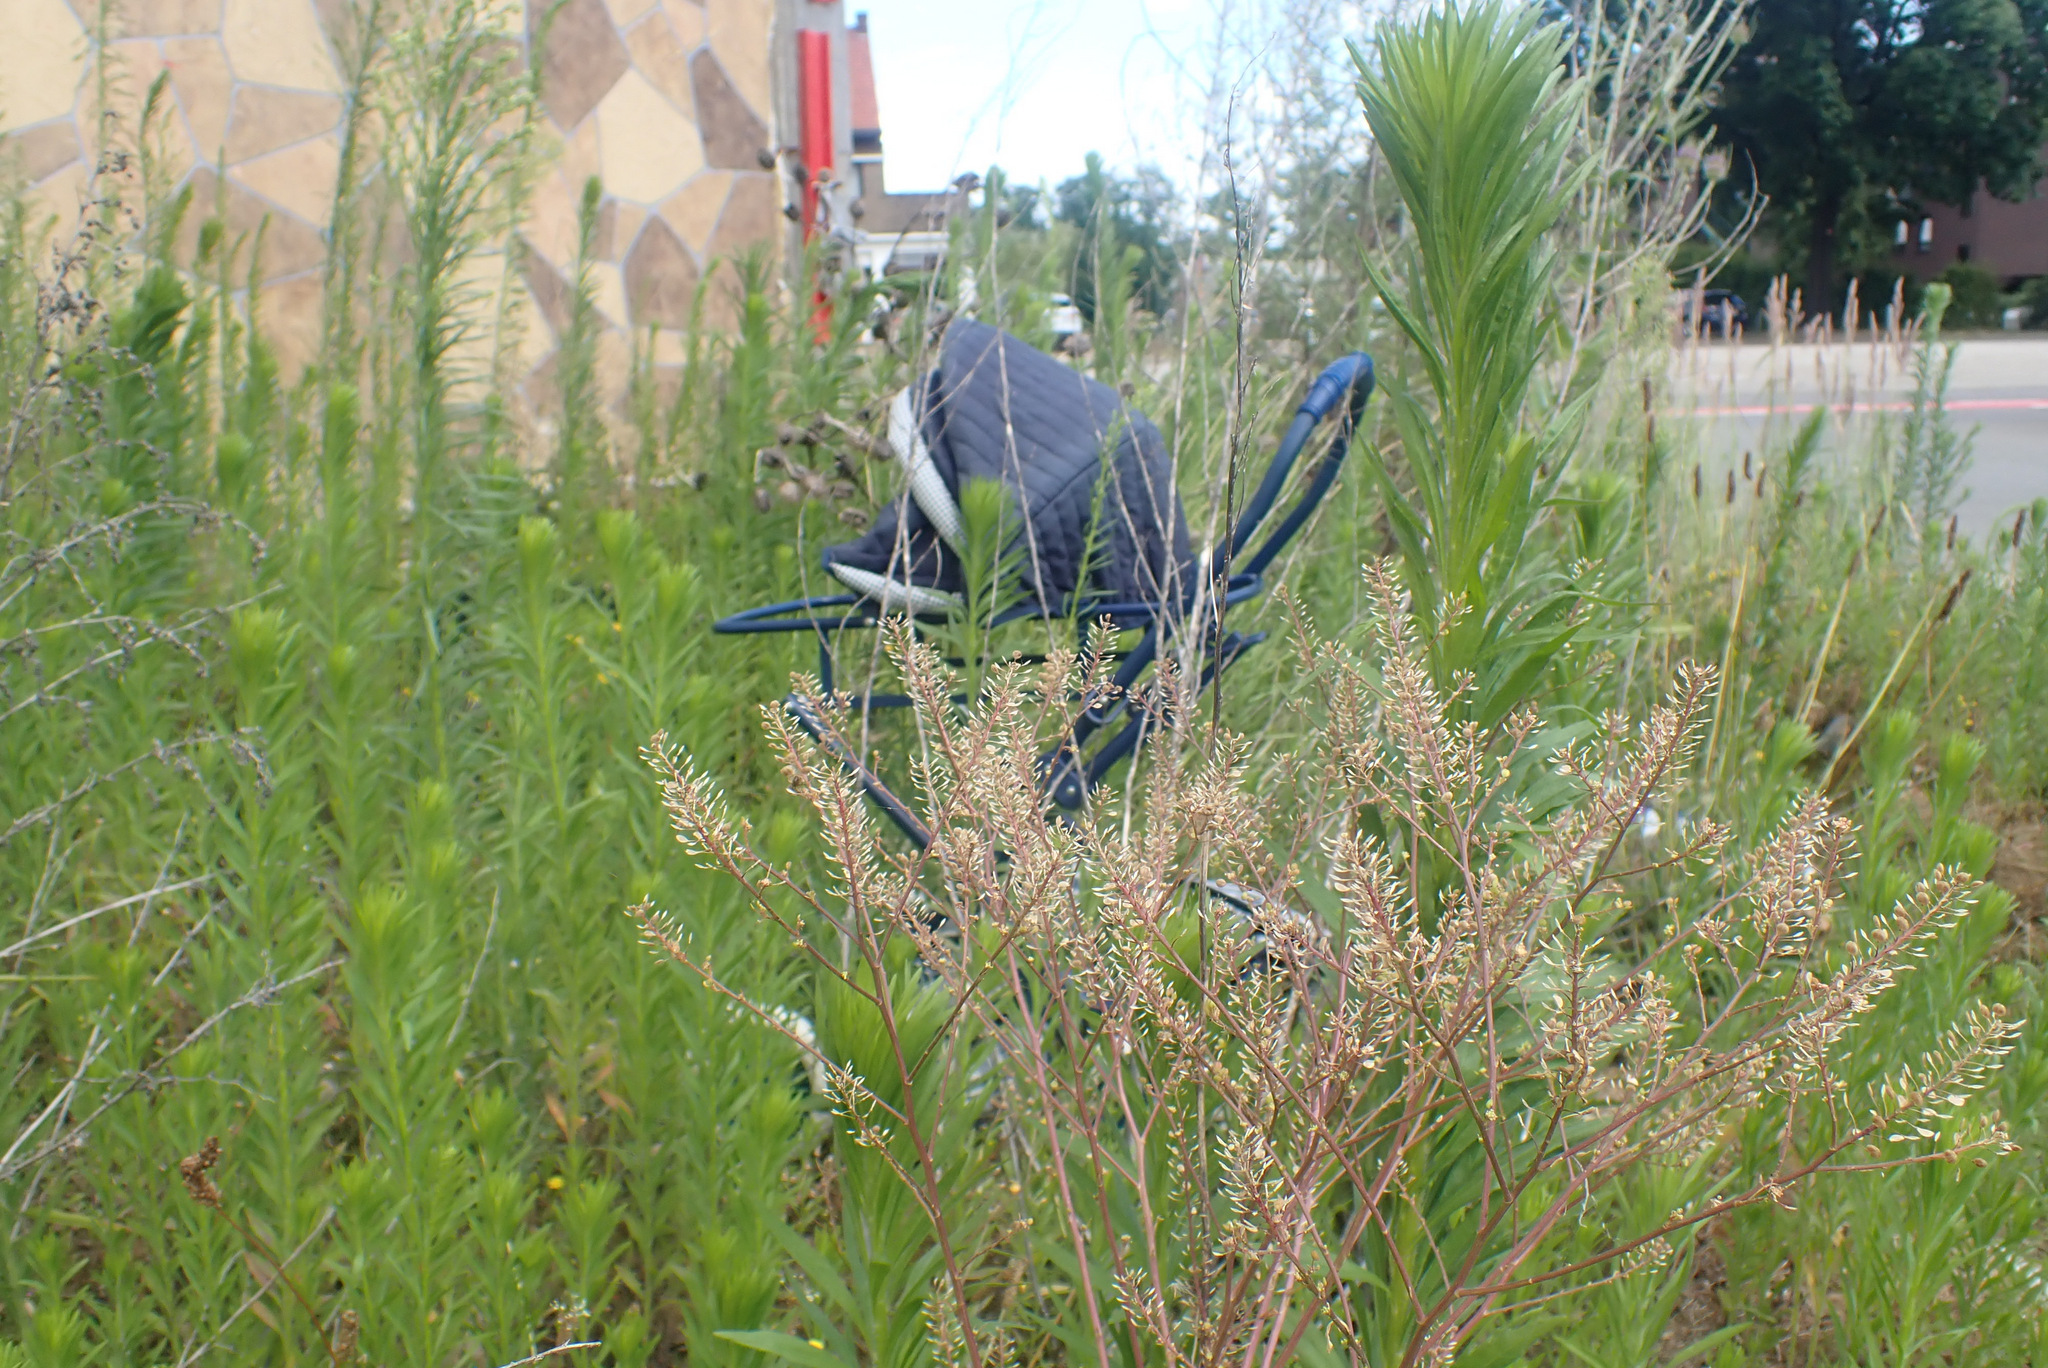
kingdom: Plantae
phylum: Tracheophyta
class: Magnoliopsida
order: Brassicales
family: Brassicaceae
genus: Lepidium
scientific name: Lepidium virginicum
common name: Least pepperwort
